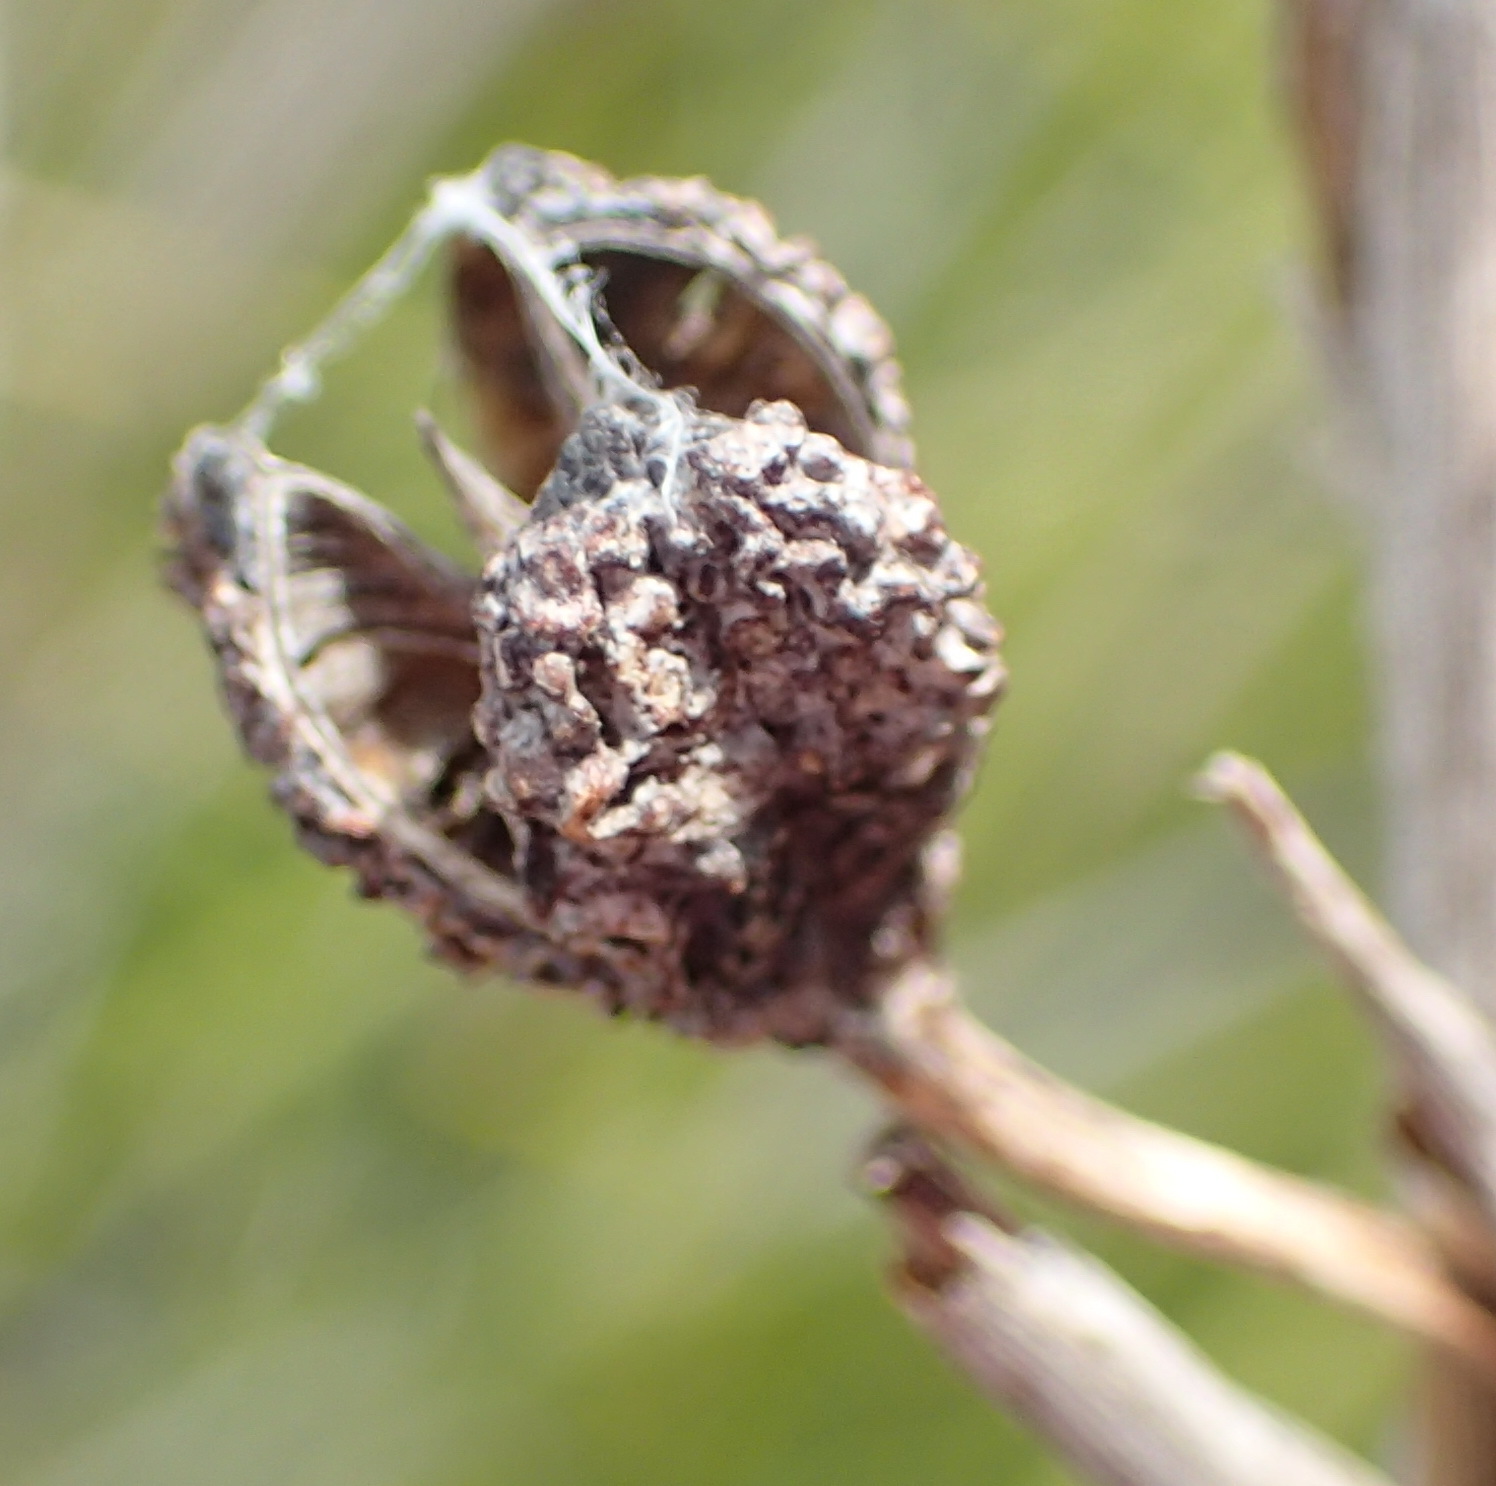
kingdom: Plantae
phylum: Tracheophyta
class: Liliopsida
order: Asparagales
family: Iridaceae
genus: Bobartia
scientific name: Bobartia aphylla
